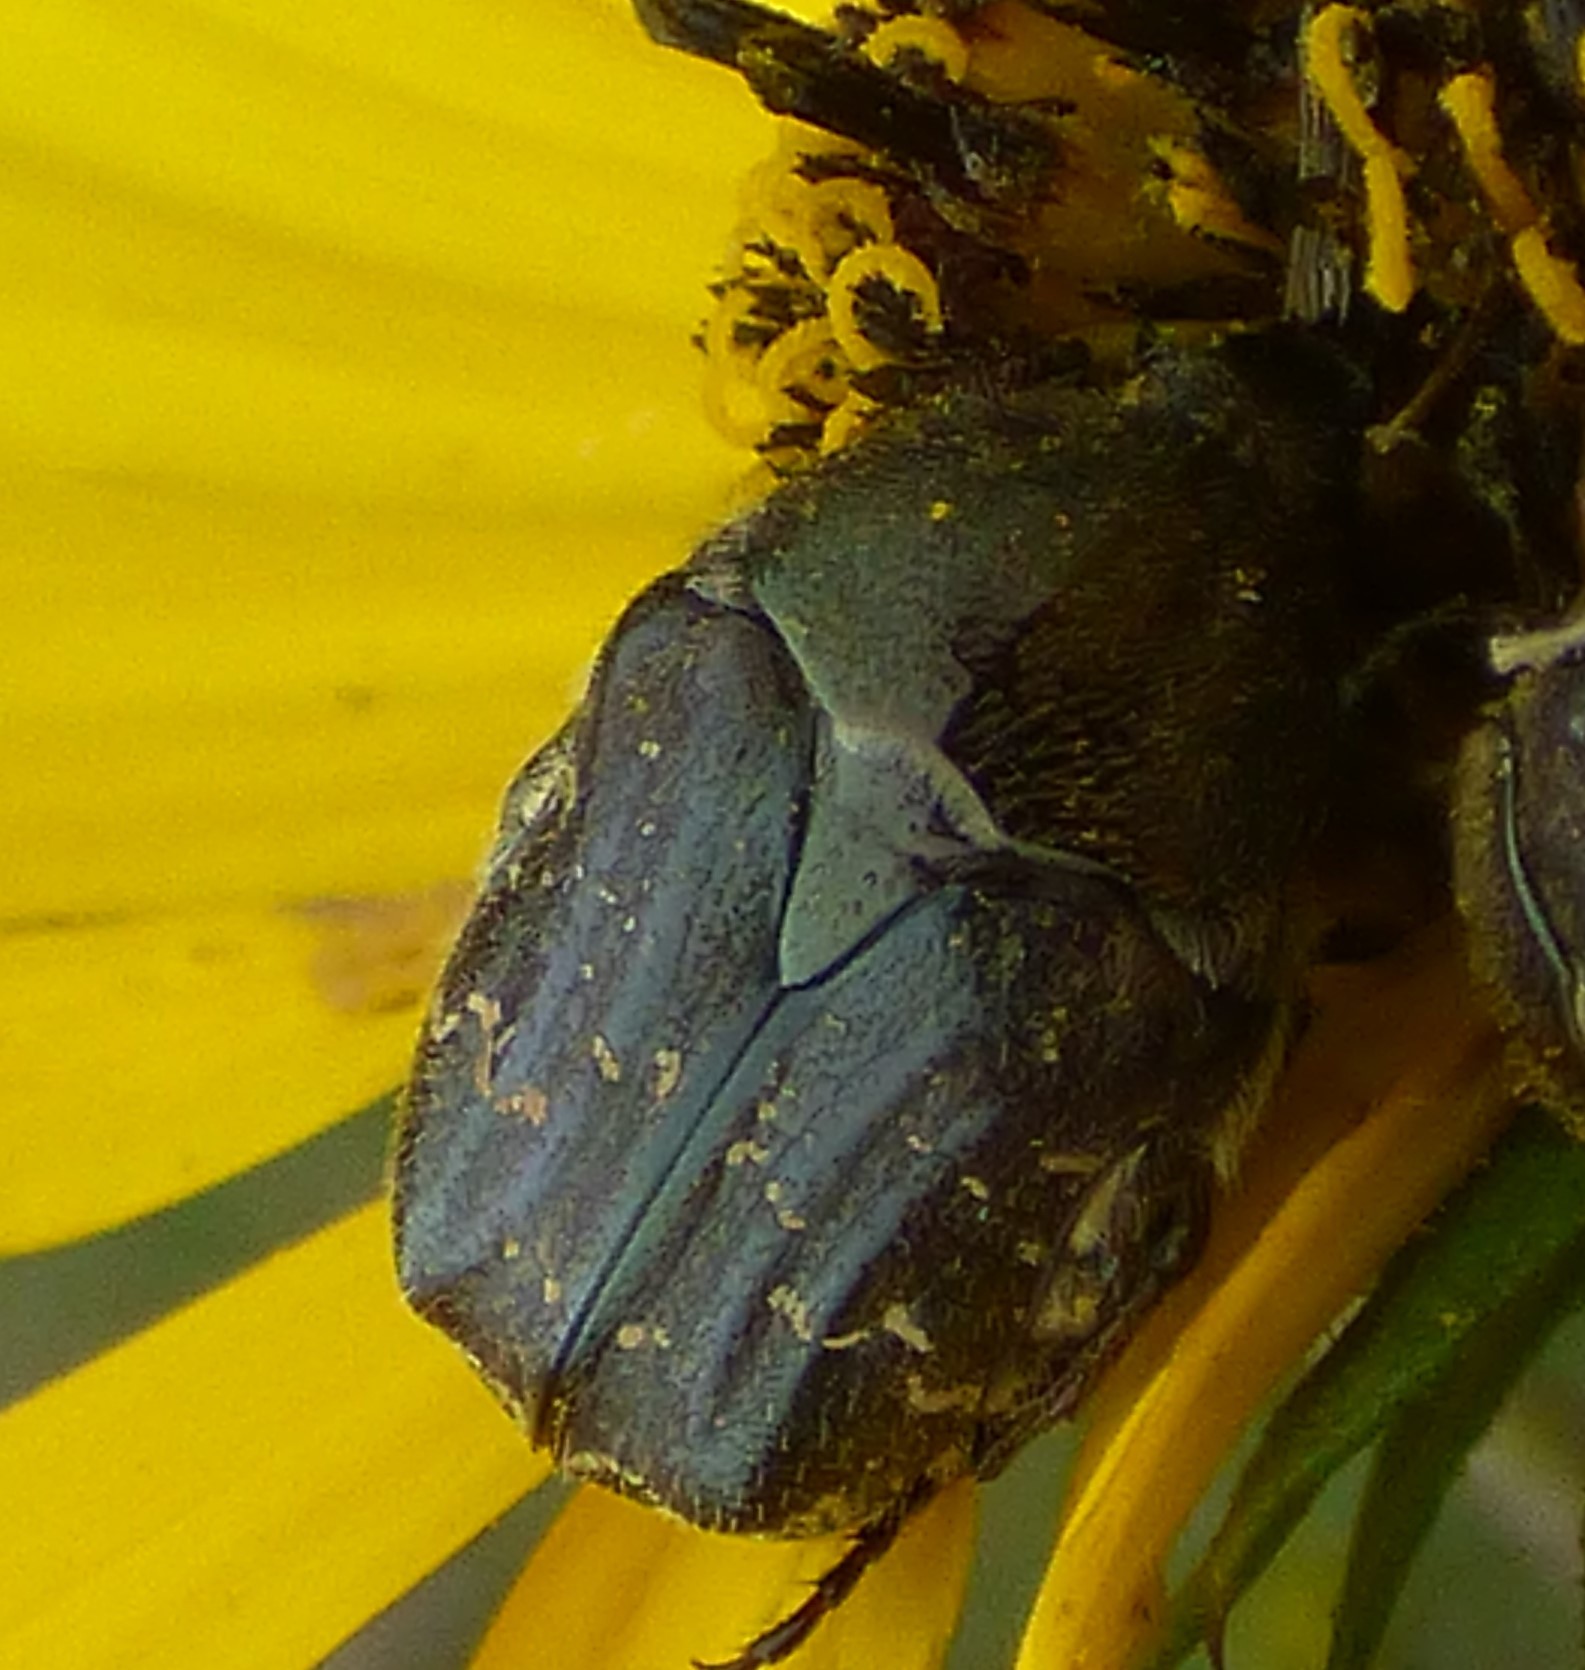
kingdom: Animalia
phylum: Arthropoda
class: Insecta
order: Coleoptera
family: Scarabaeidae
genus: Euphoria
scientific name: Euphoria sepulcralis
